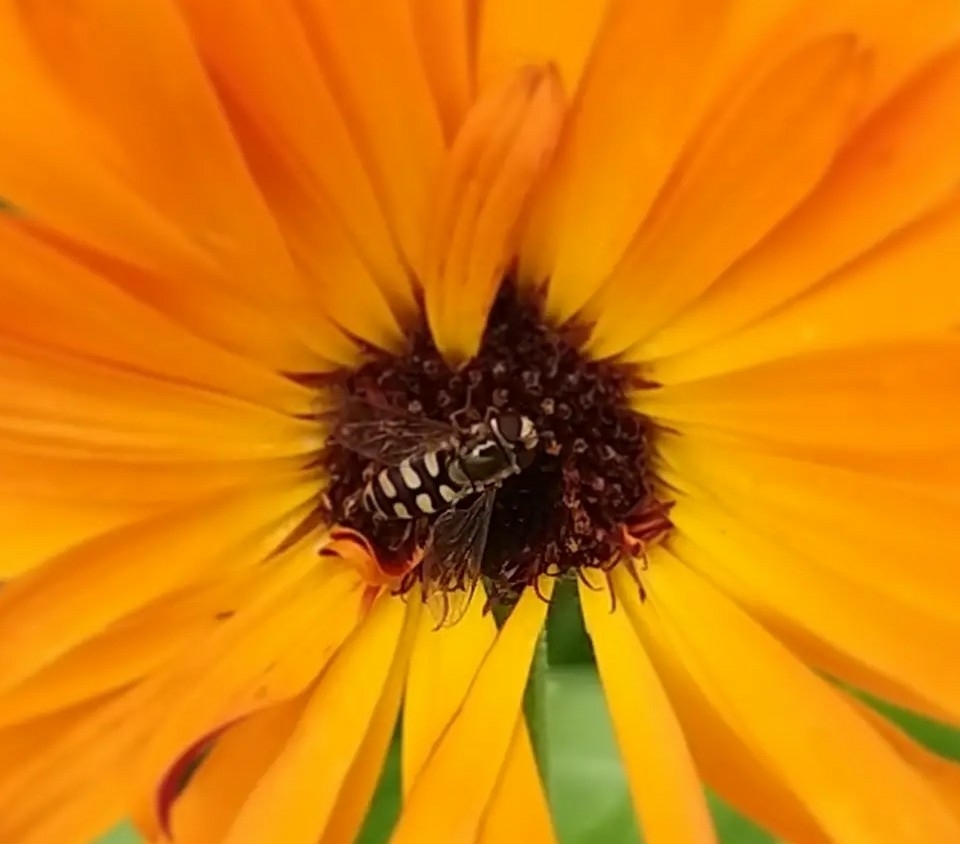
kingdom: Animalia
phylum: Arthropoda
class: Insecta
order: Diptera
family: Syrphidae
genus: Eupeodes
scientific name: Eupeodes corollae
